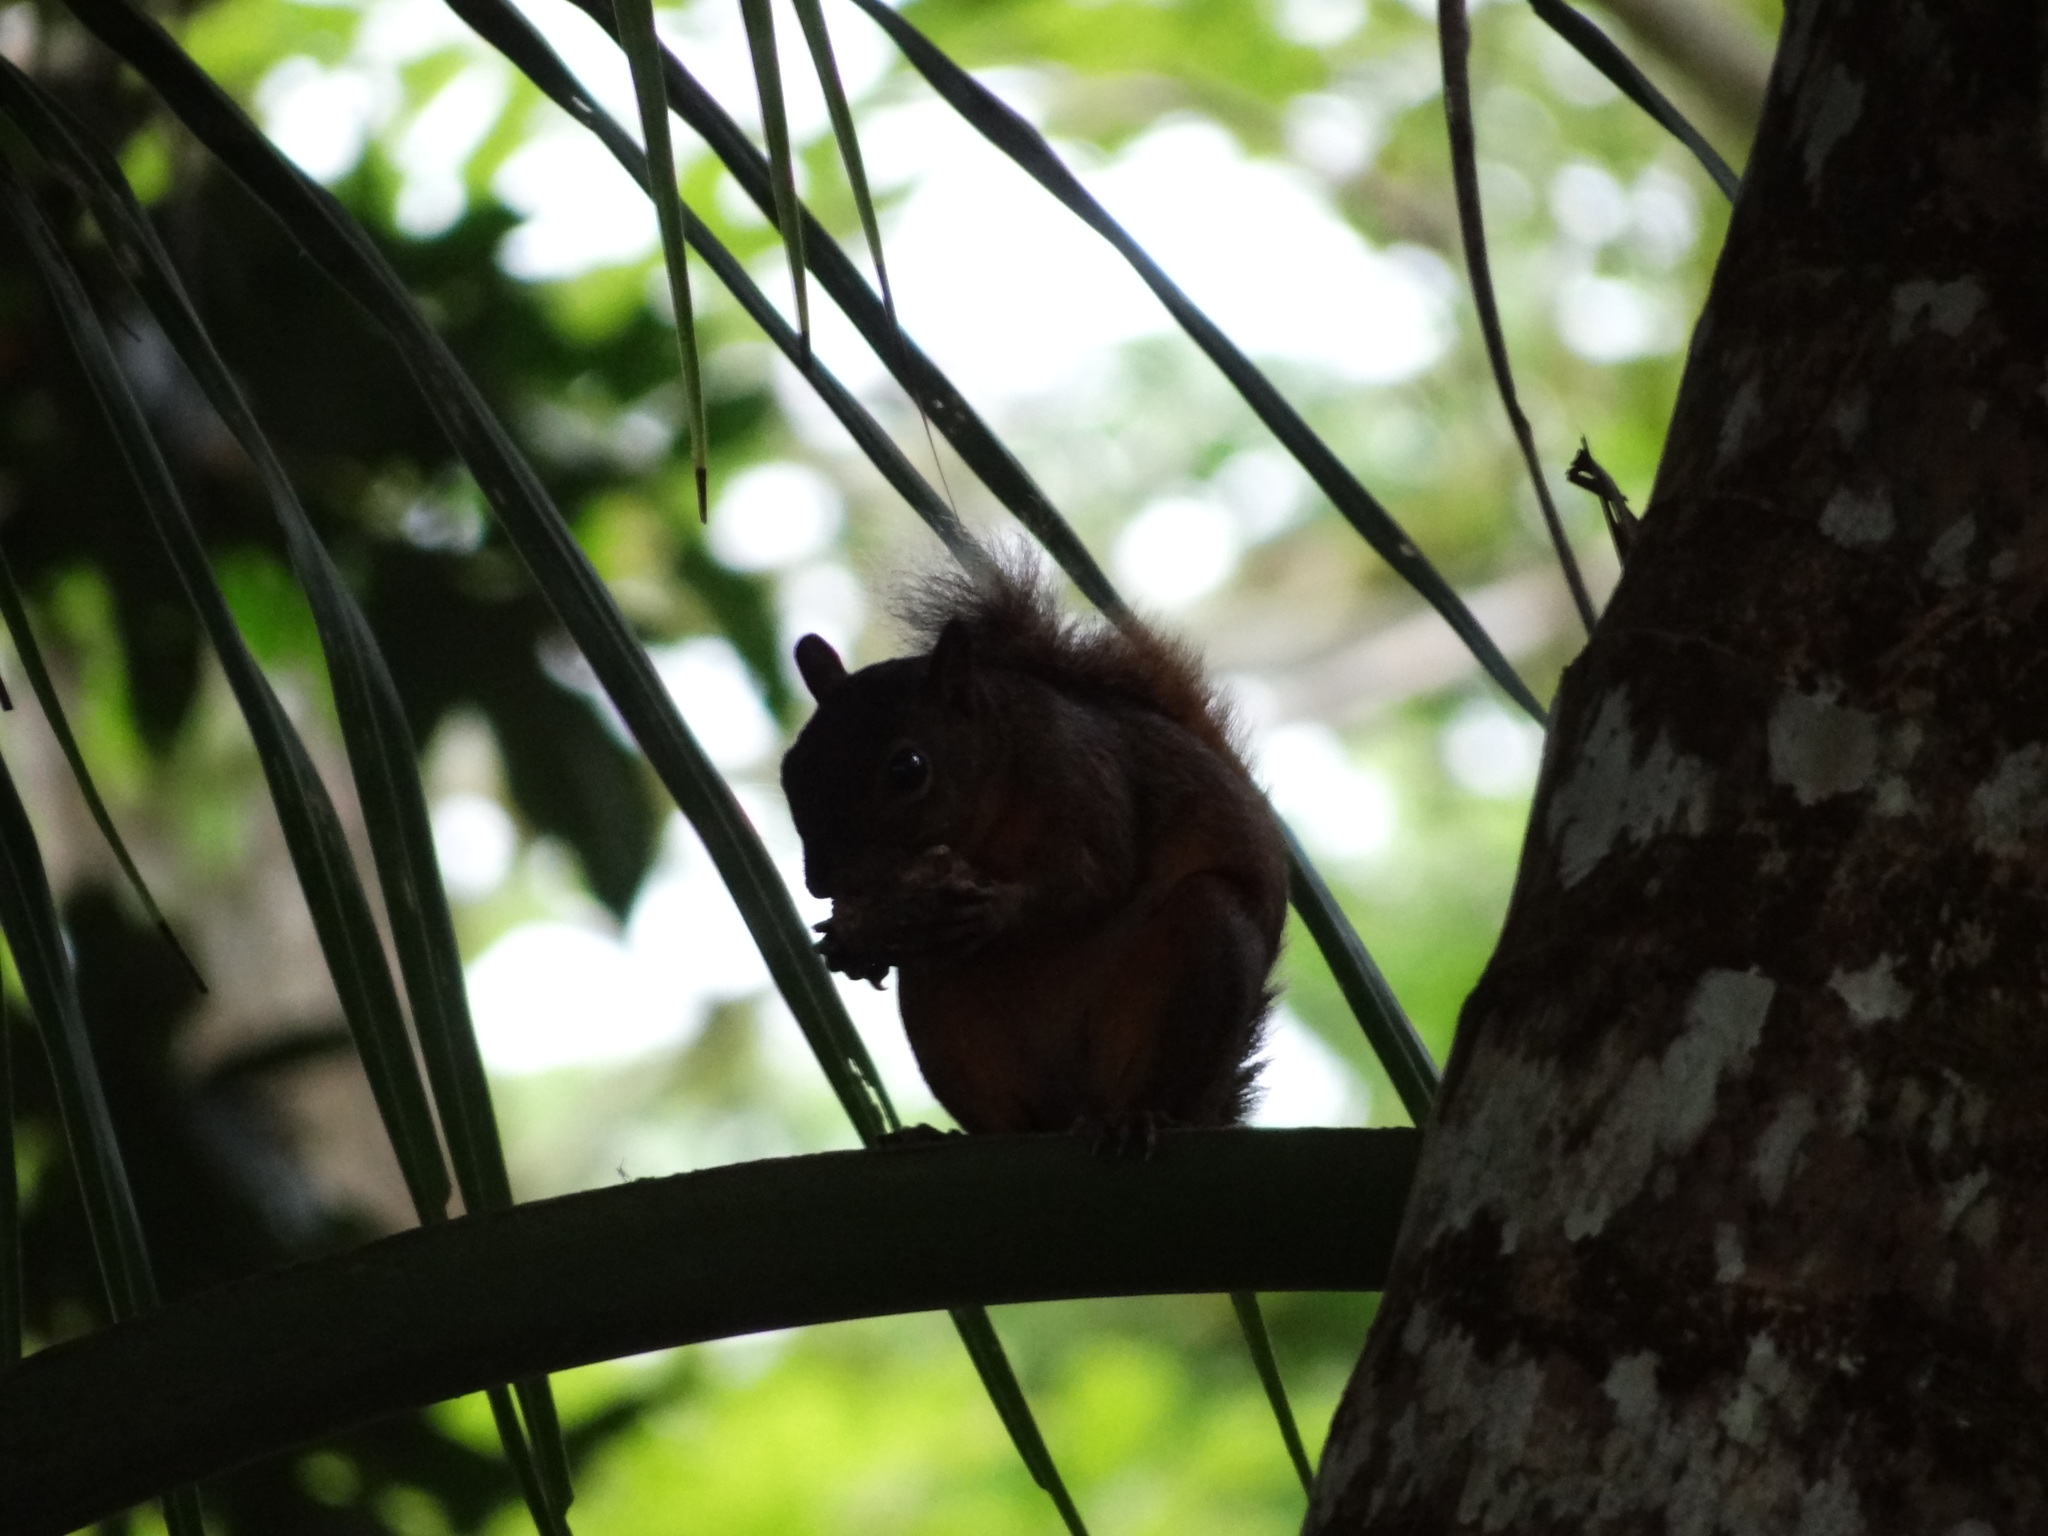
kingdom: Animalia
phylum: Chordata
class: Mammalia
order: Rodentia
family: Sciuridae
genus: Sciurus
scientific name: Sciurus granatensis
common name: Red-tailed squirrel
